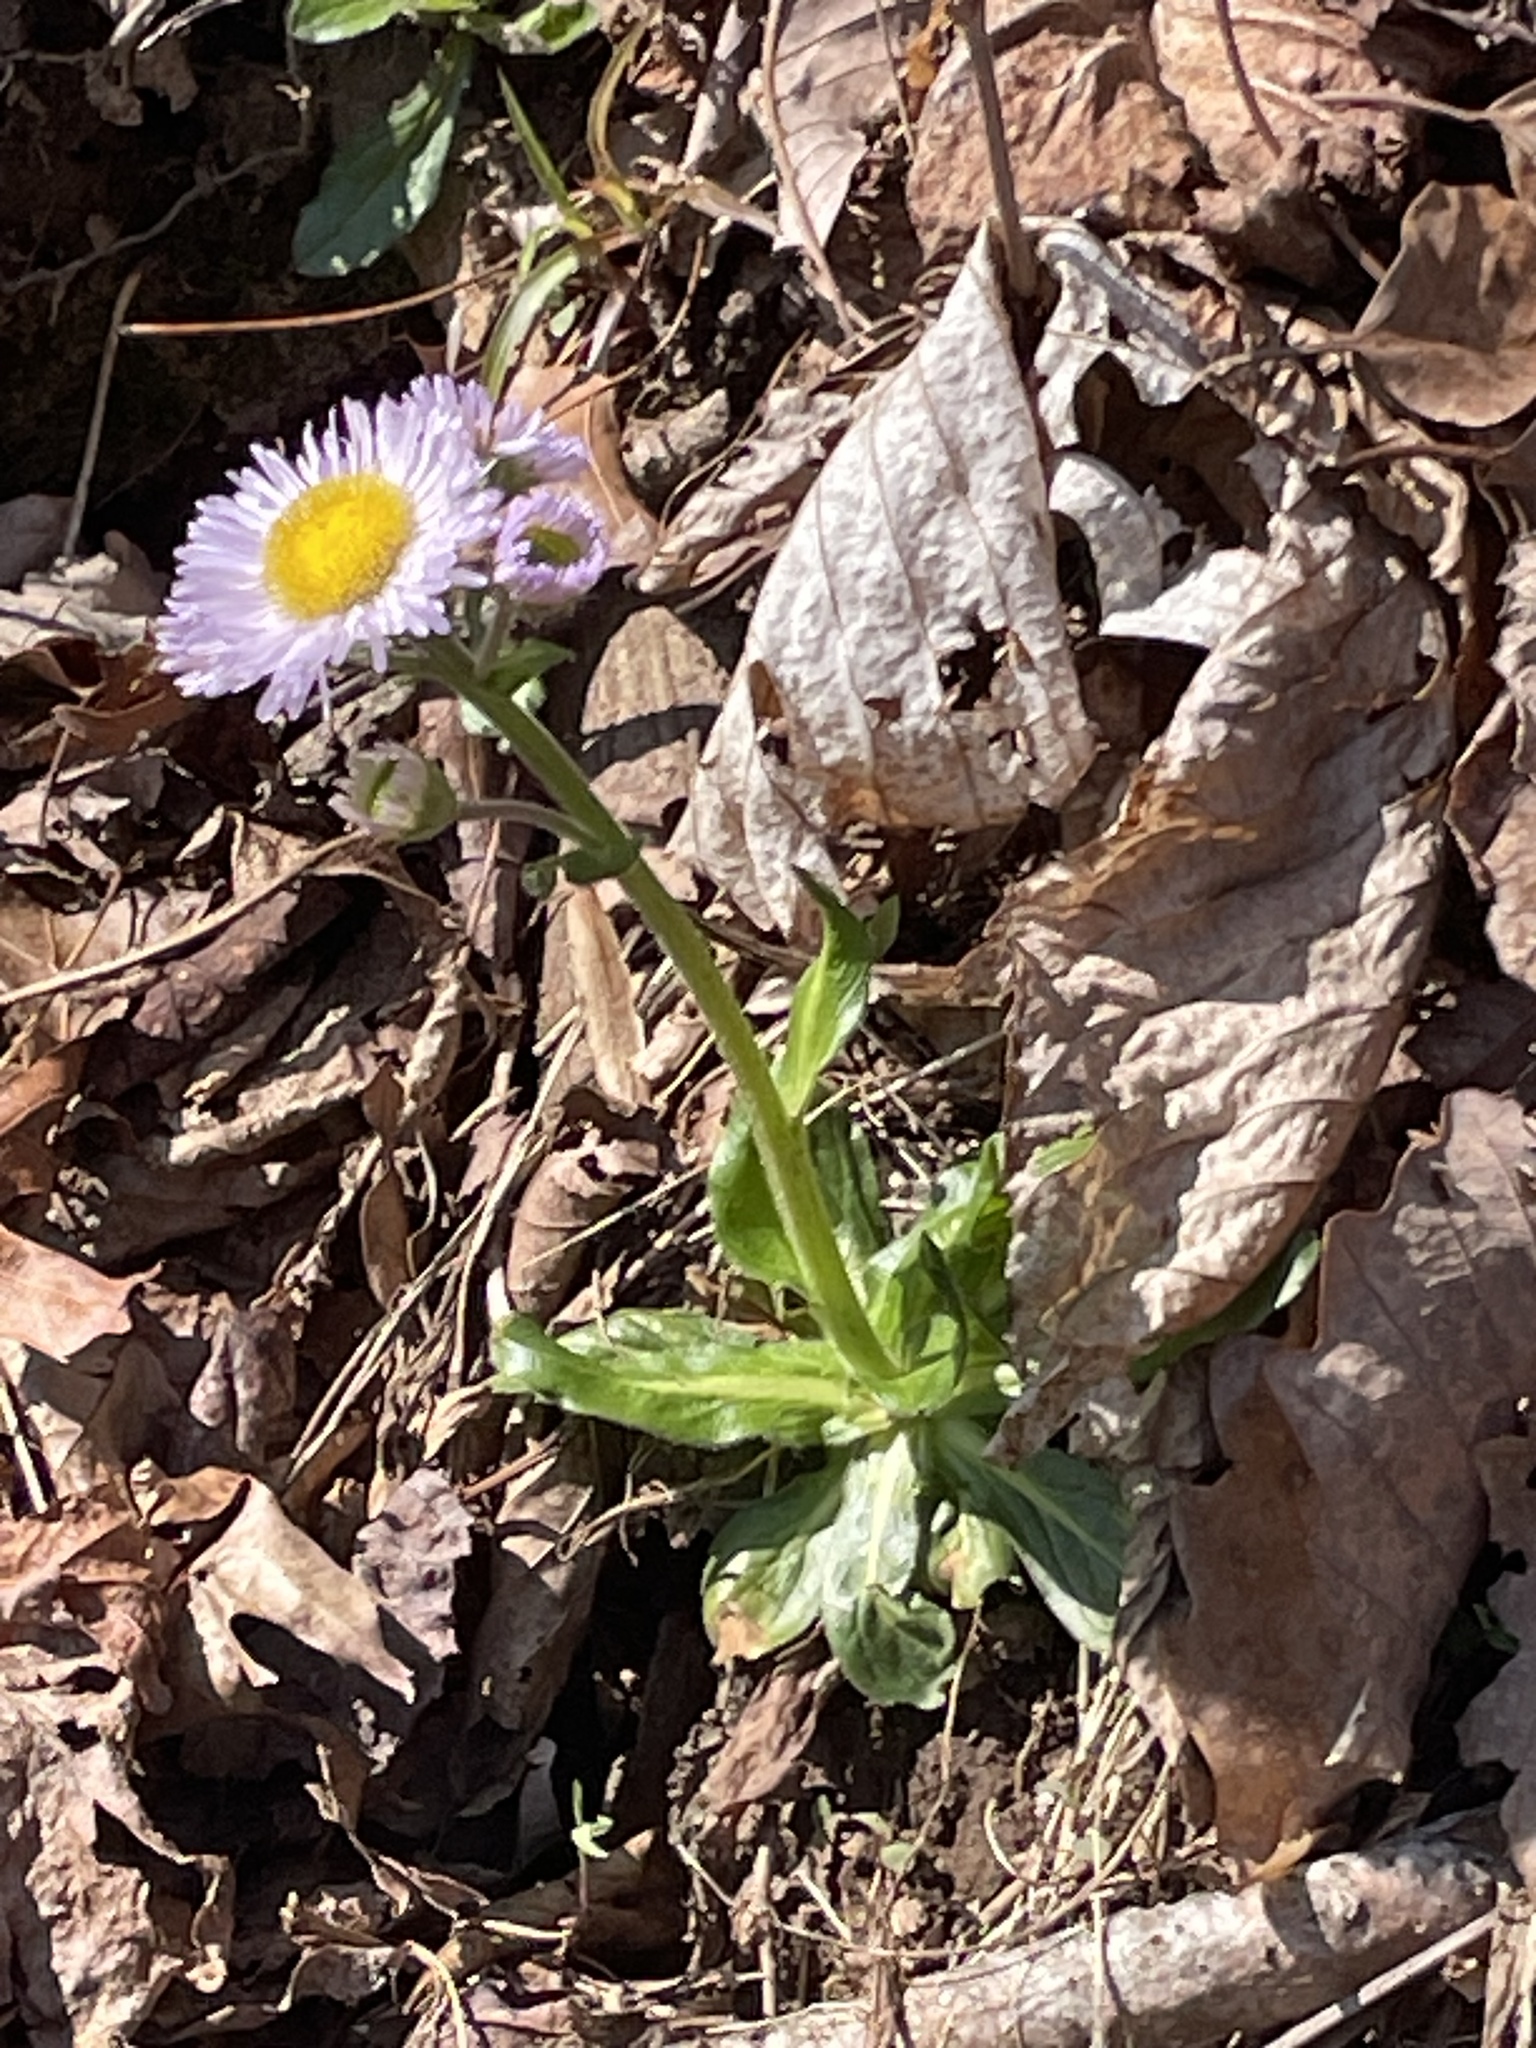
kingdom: Plantae
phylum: Tracheophyta
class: Magnoliopsida
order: Asterales
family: Asteraceae
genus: Erigeron
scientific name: Erigeron pulchellus
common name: Hairy fleabane
